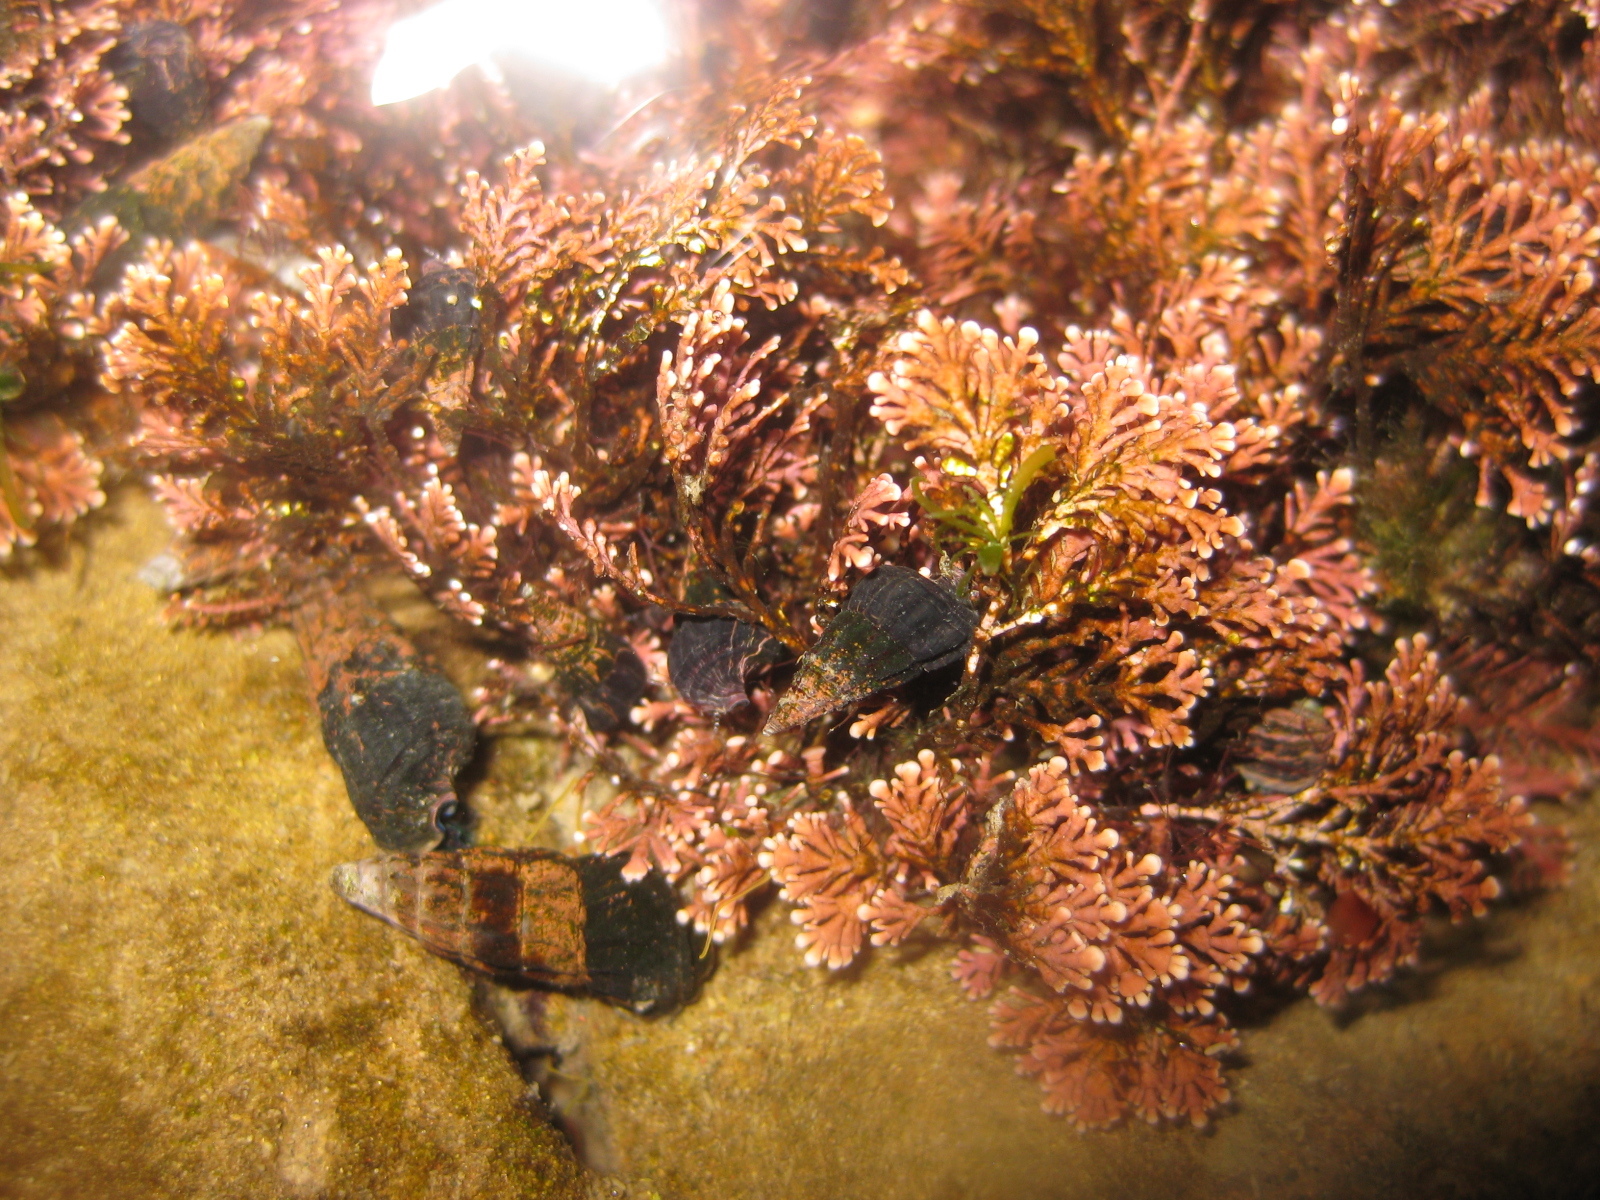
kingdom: Plantae
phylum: Rhodophyta
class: Florideophyceae
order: Corallinales
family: Corallinaceae
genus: Corallina
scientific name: Corallina officinalis
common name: Coral weed
